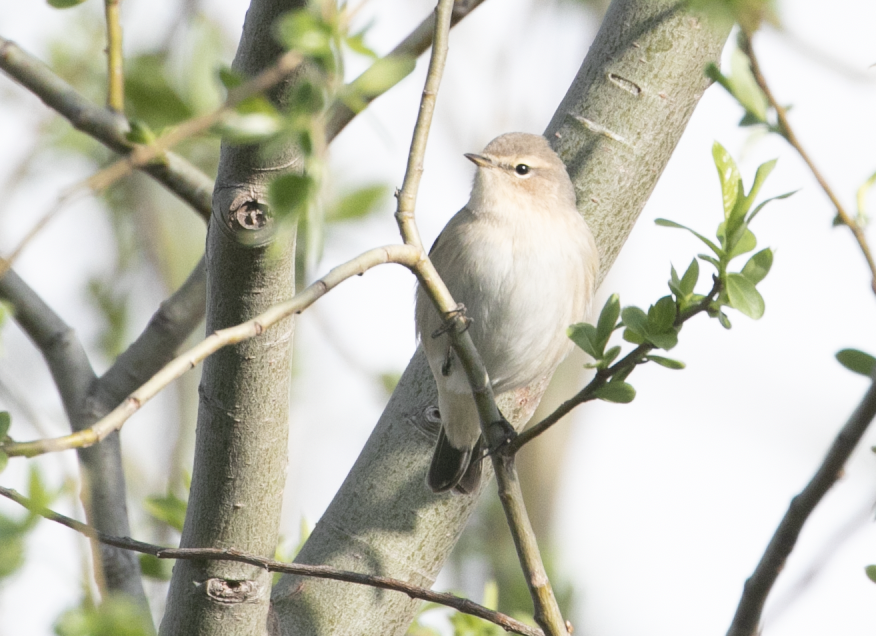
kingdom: Animalia
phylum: Chordata
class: Aves
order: Passeriformes
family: Phylloscopidae
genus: Phylloscopus
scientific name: Phylloscopus collybita
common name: Common chiffchaff
